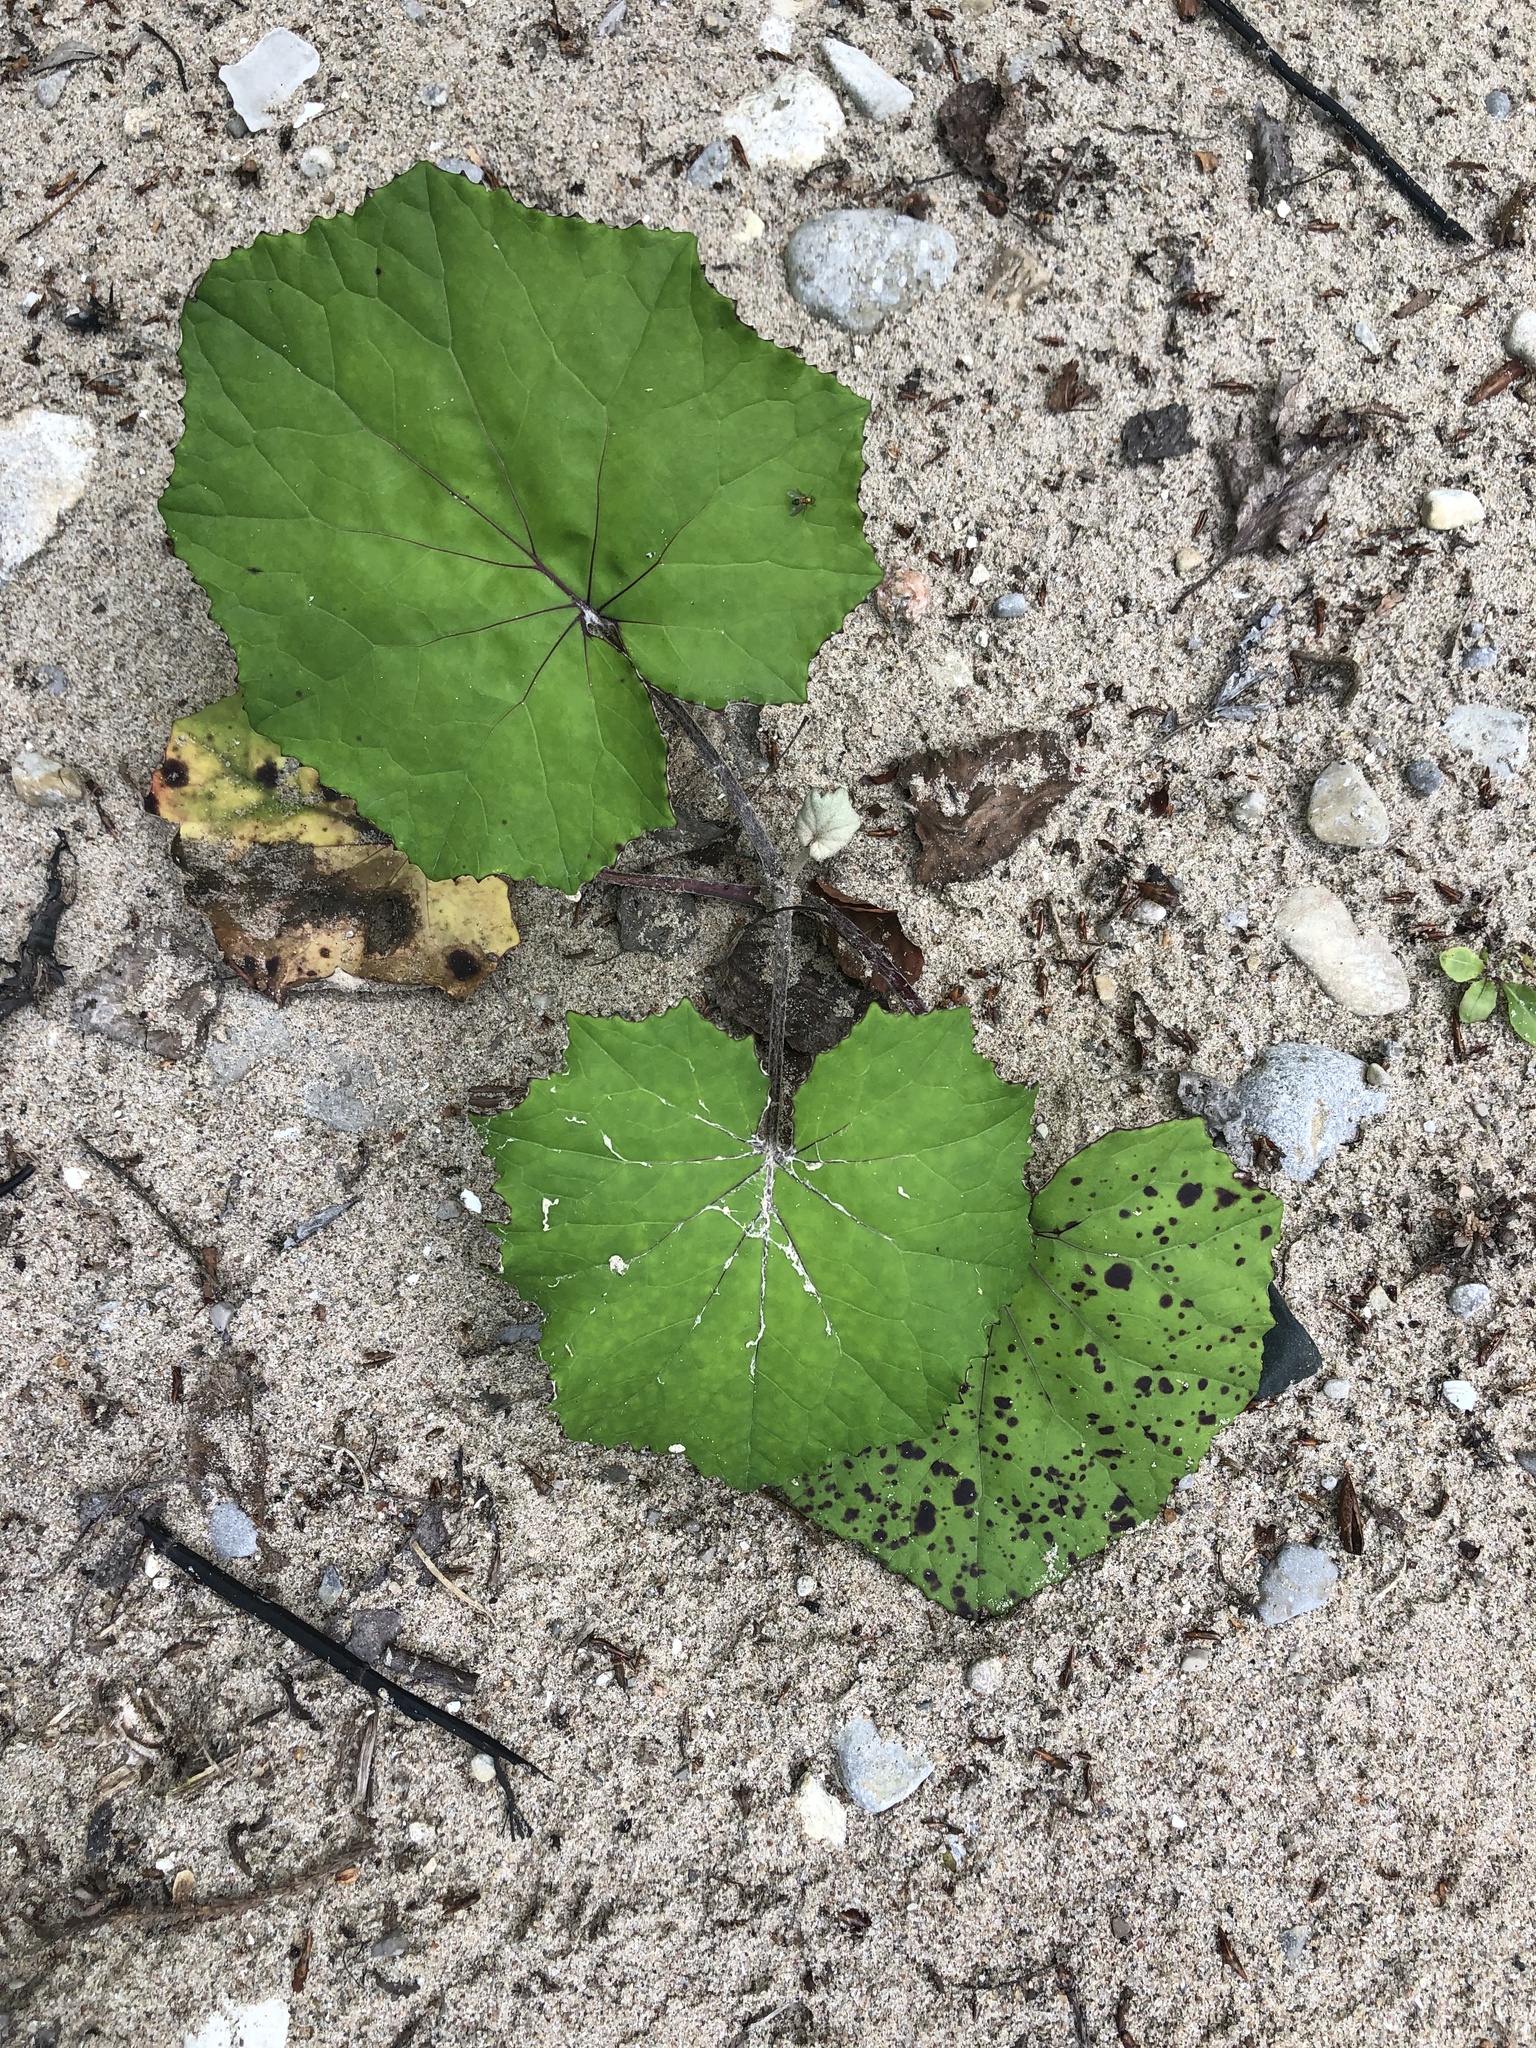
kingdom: Plantae
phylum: Tracheophyta
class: Magnoliopsida
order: Asterales
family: Asteraceae
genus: Tussilago
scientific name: Tussilago farfara
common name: Coltsfoot
